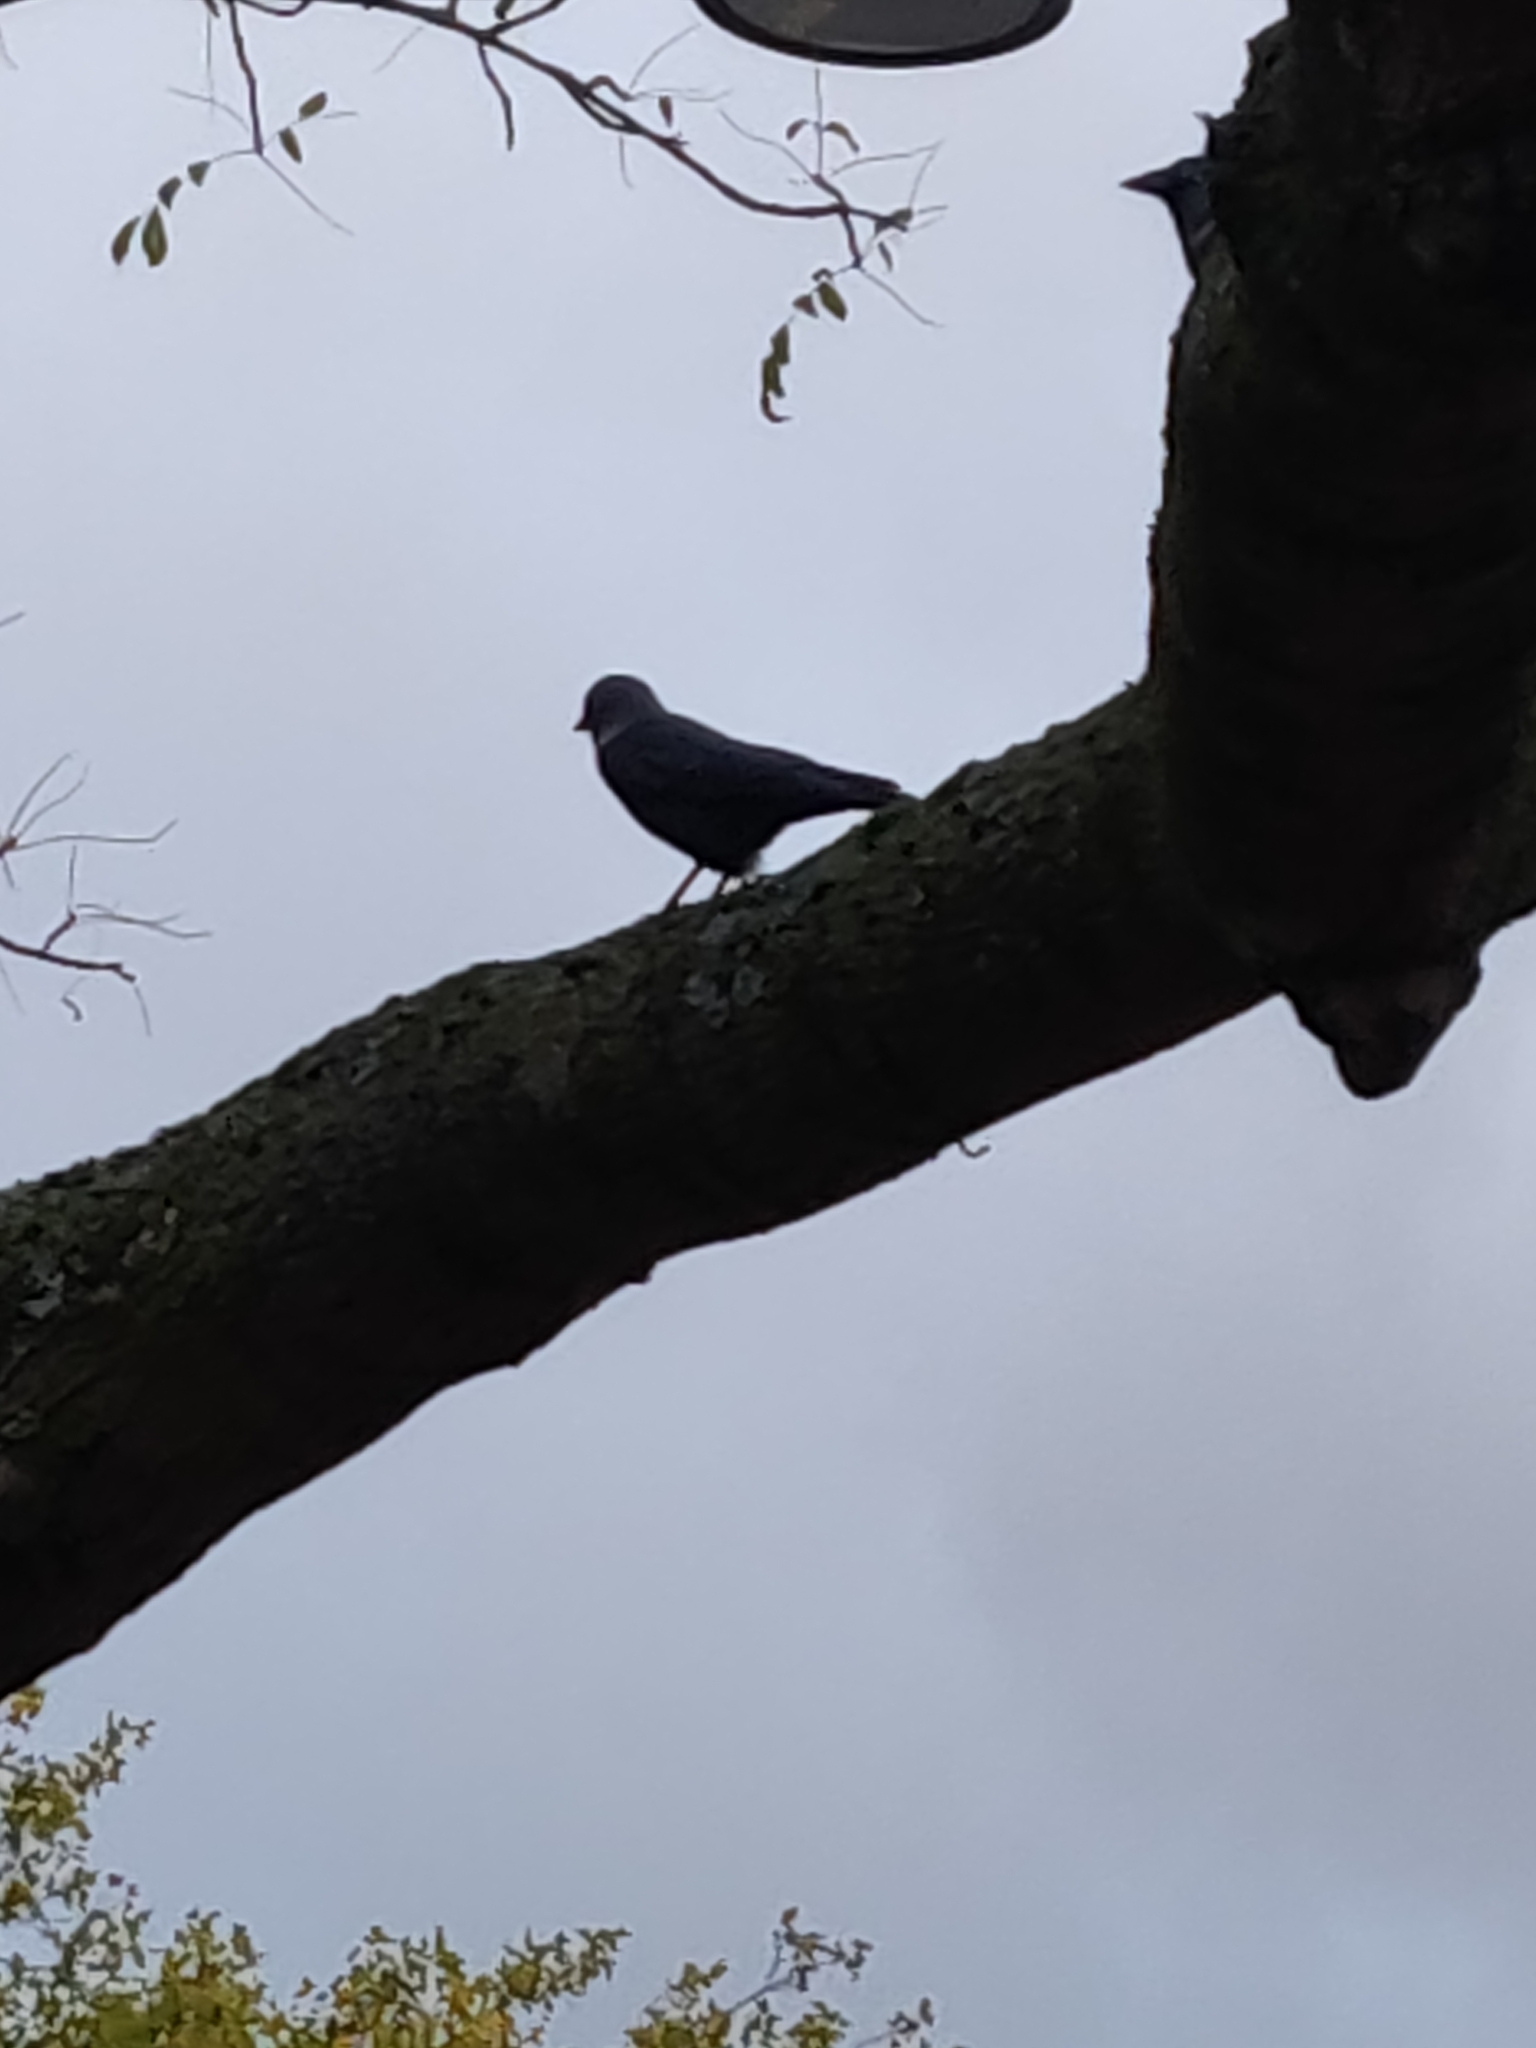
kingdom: Animalia
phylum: Chordata
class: Aves
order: Passeriformes
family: Corvidae
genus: Coloeus
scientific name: Coloeus monedula
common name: Western jackdaw
